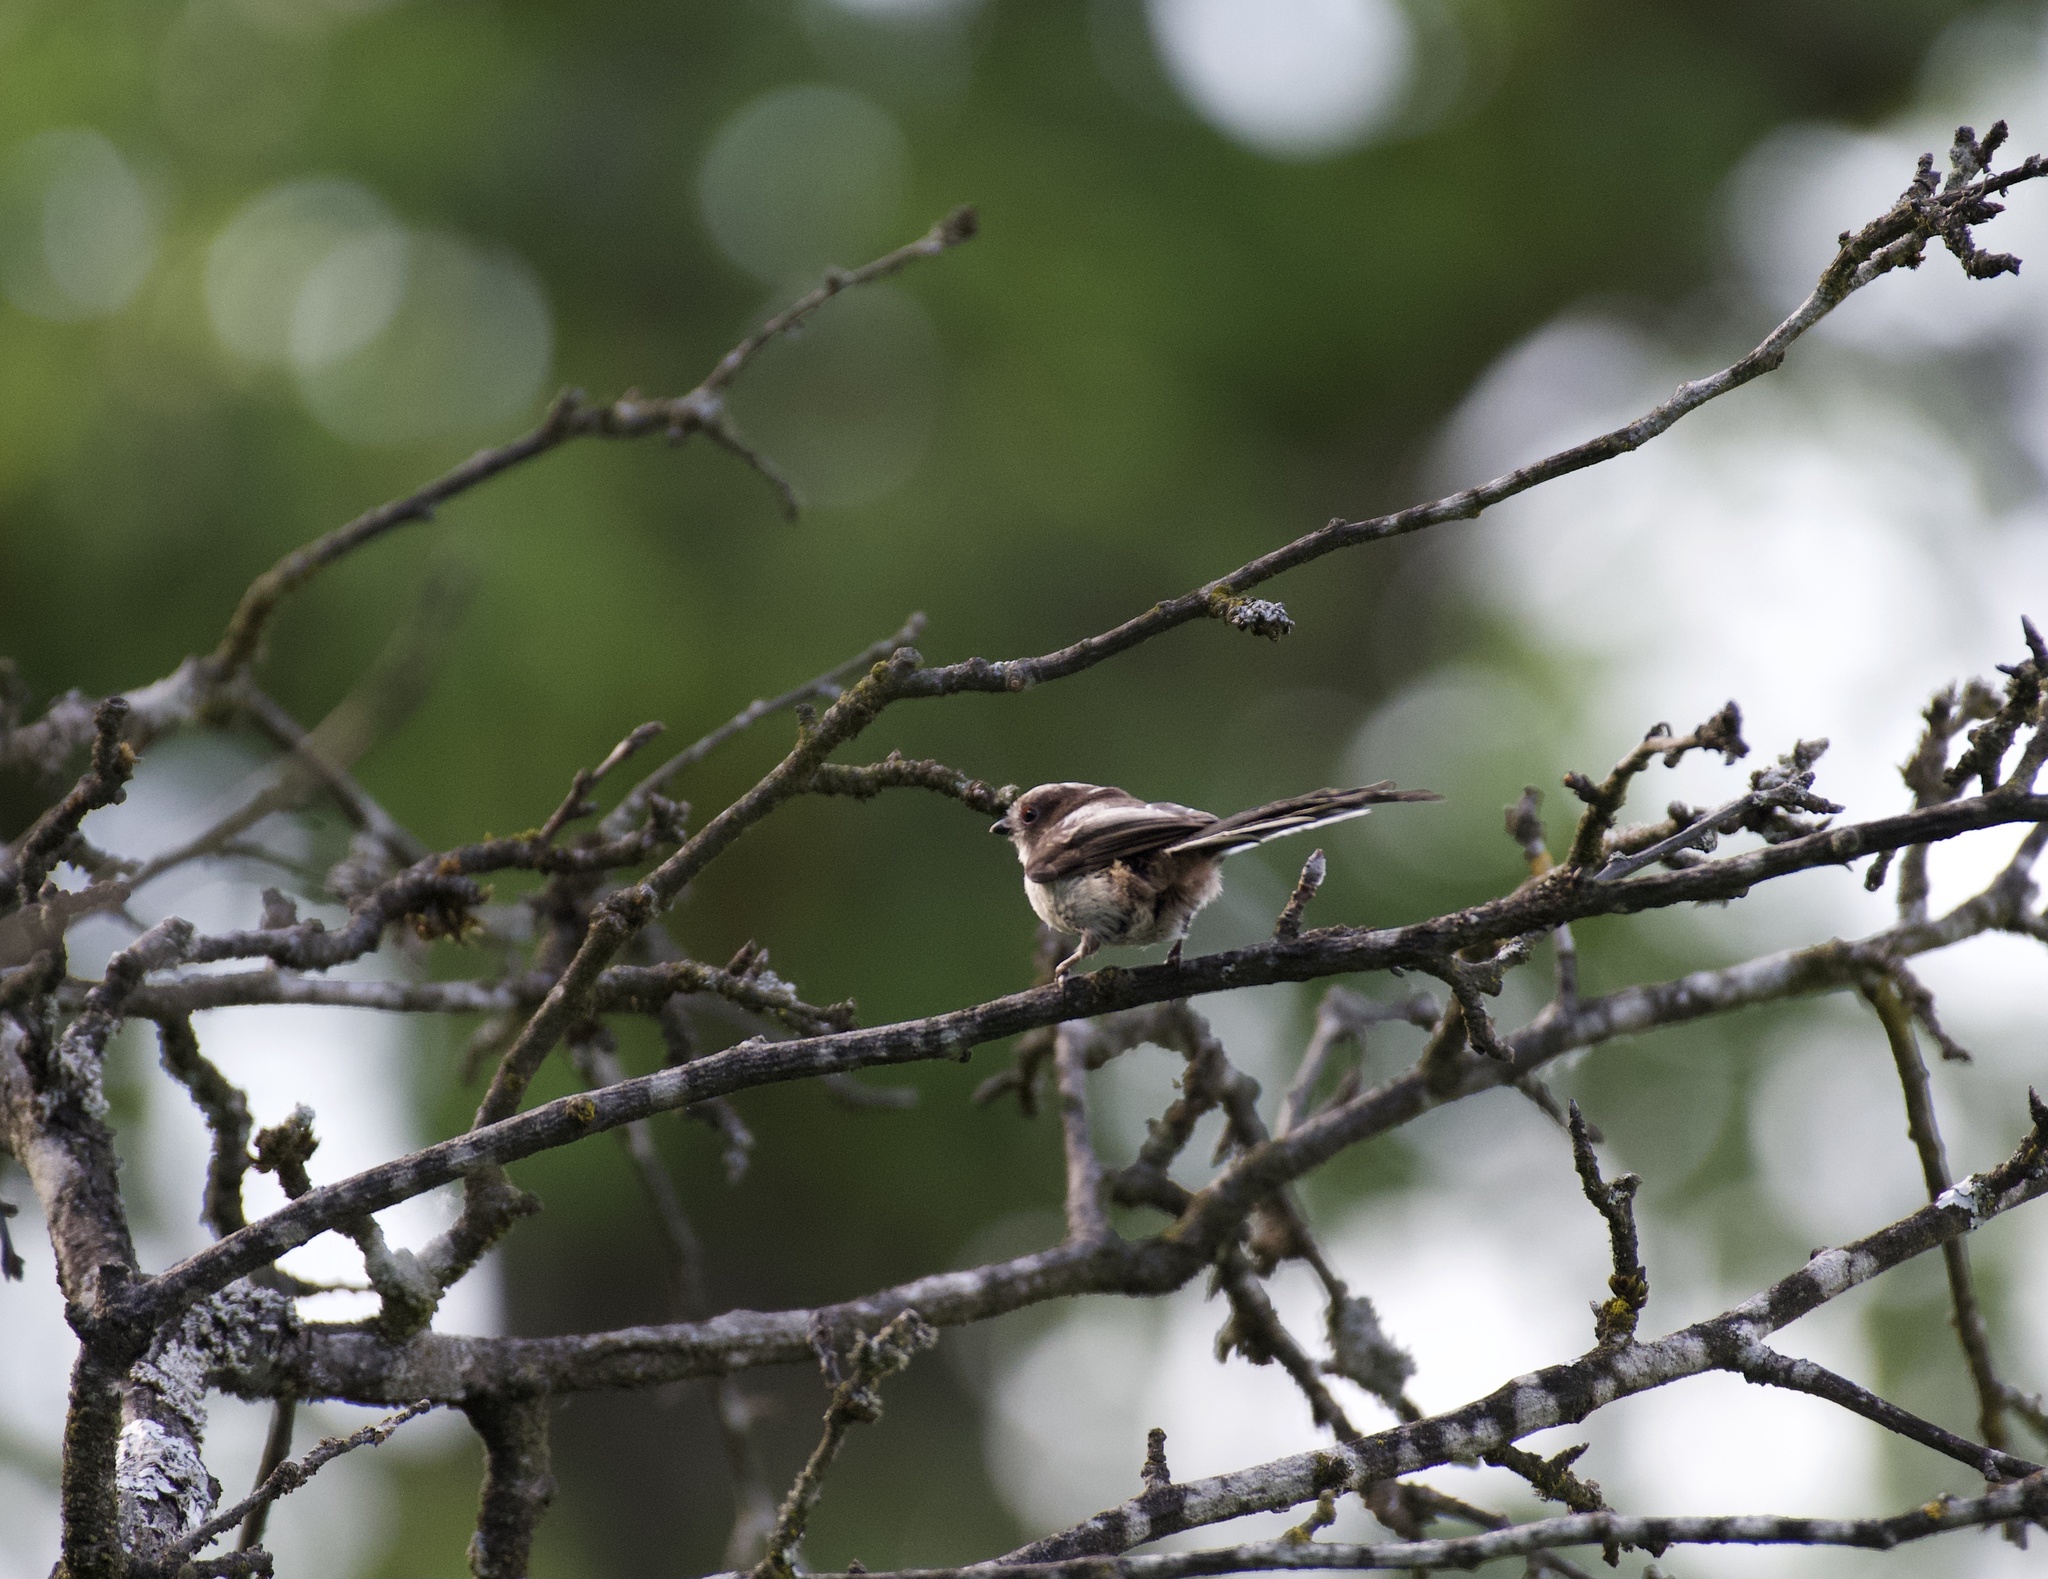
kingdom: Animalia
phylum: Chordata
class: Aves
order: Passeriformes
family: Aegithalidae
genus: Aegithalos
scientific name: Aegithalos caudatus
